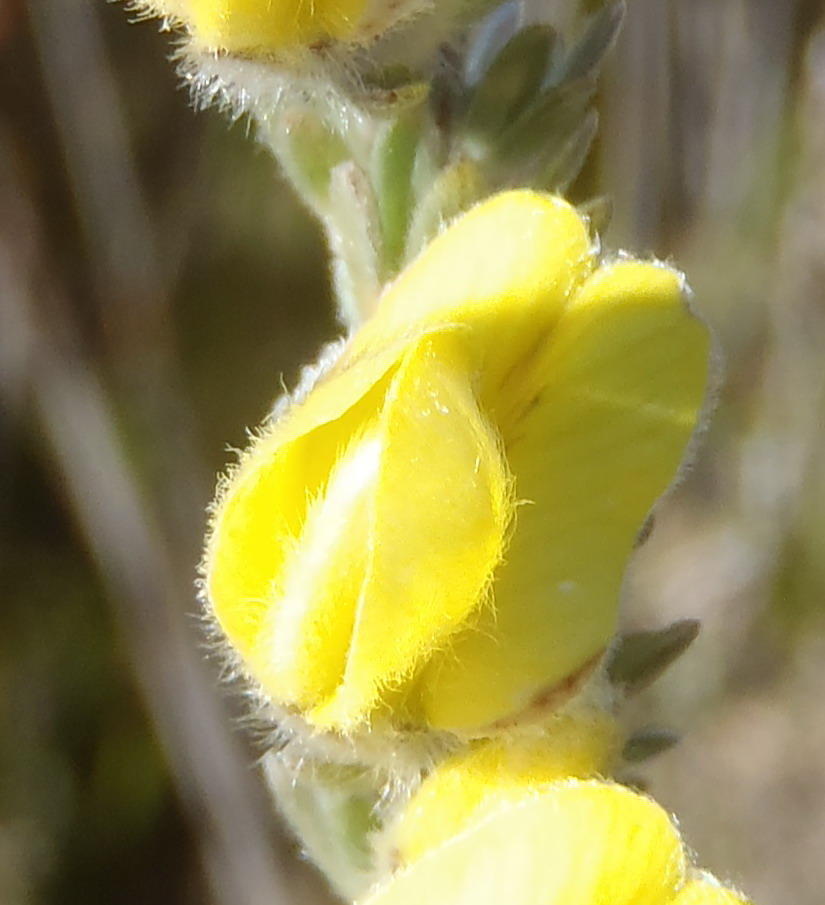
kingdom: Plantae
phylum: Tracheophyta
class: Magnoliopsida
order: Fabales
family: Fabaceae
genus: Aspalathus
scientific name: Aspalathus caledonensis
